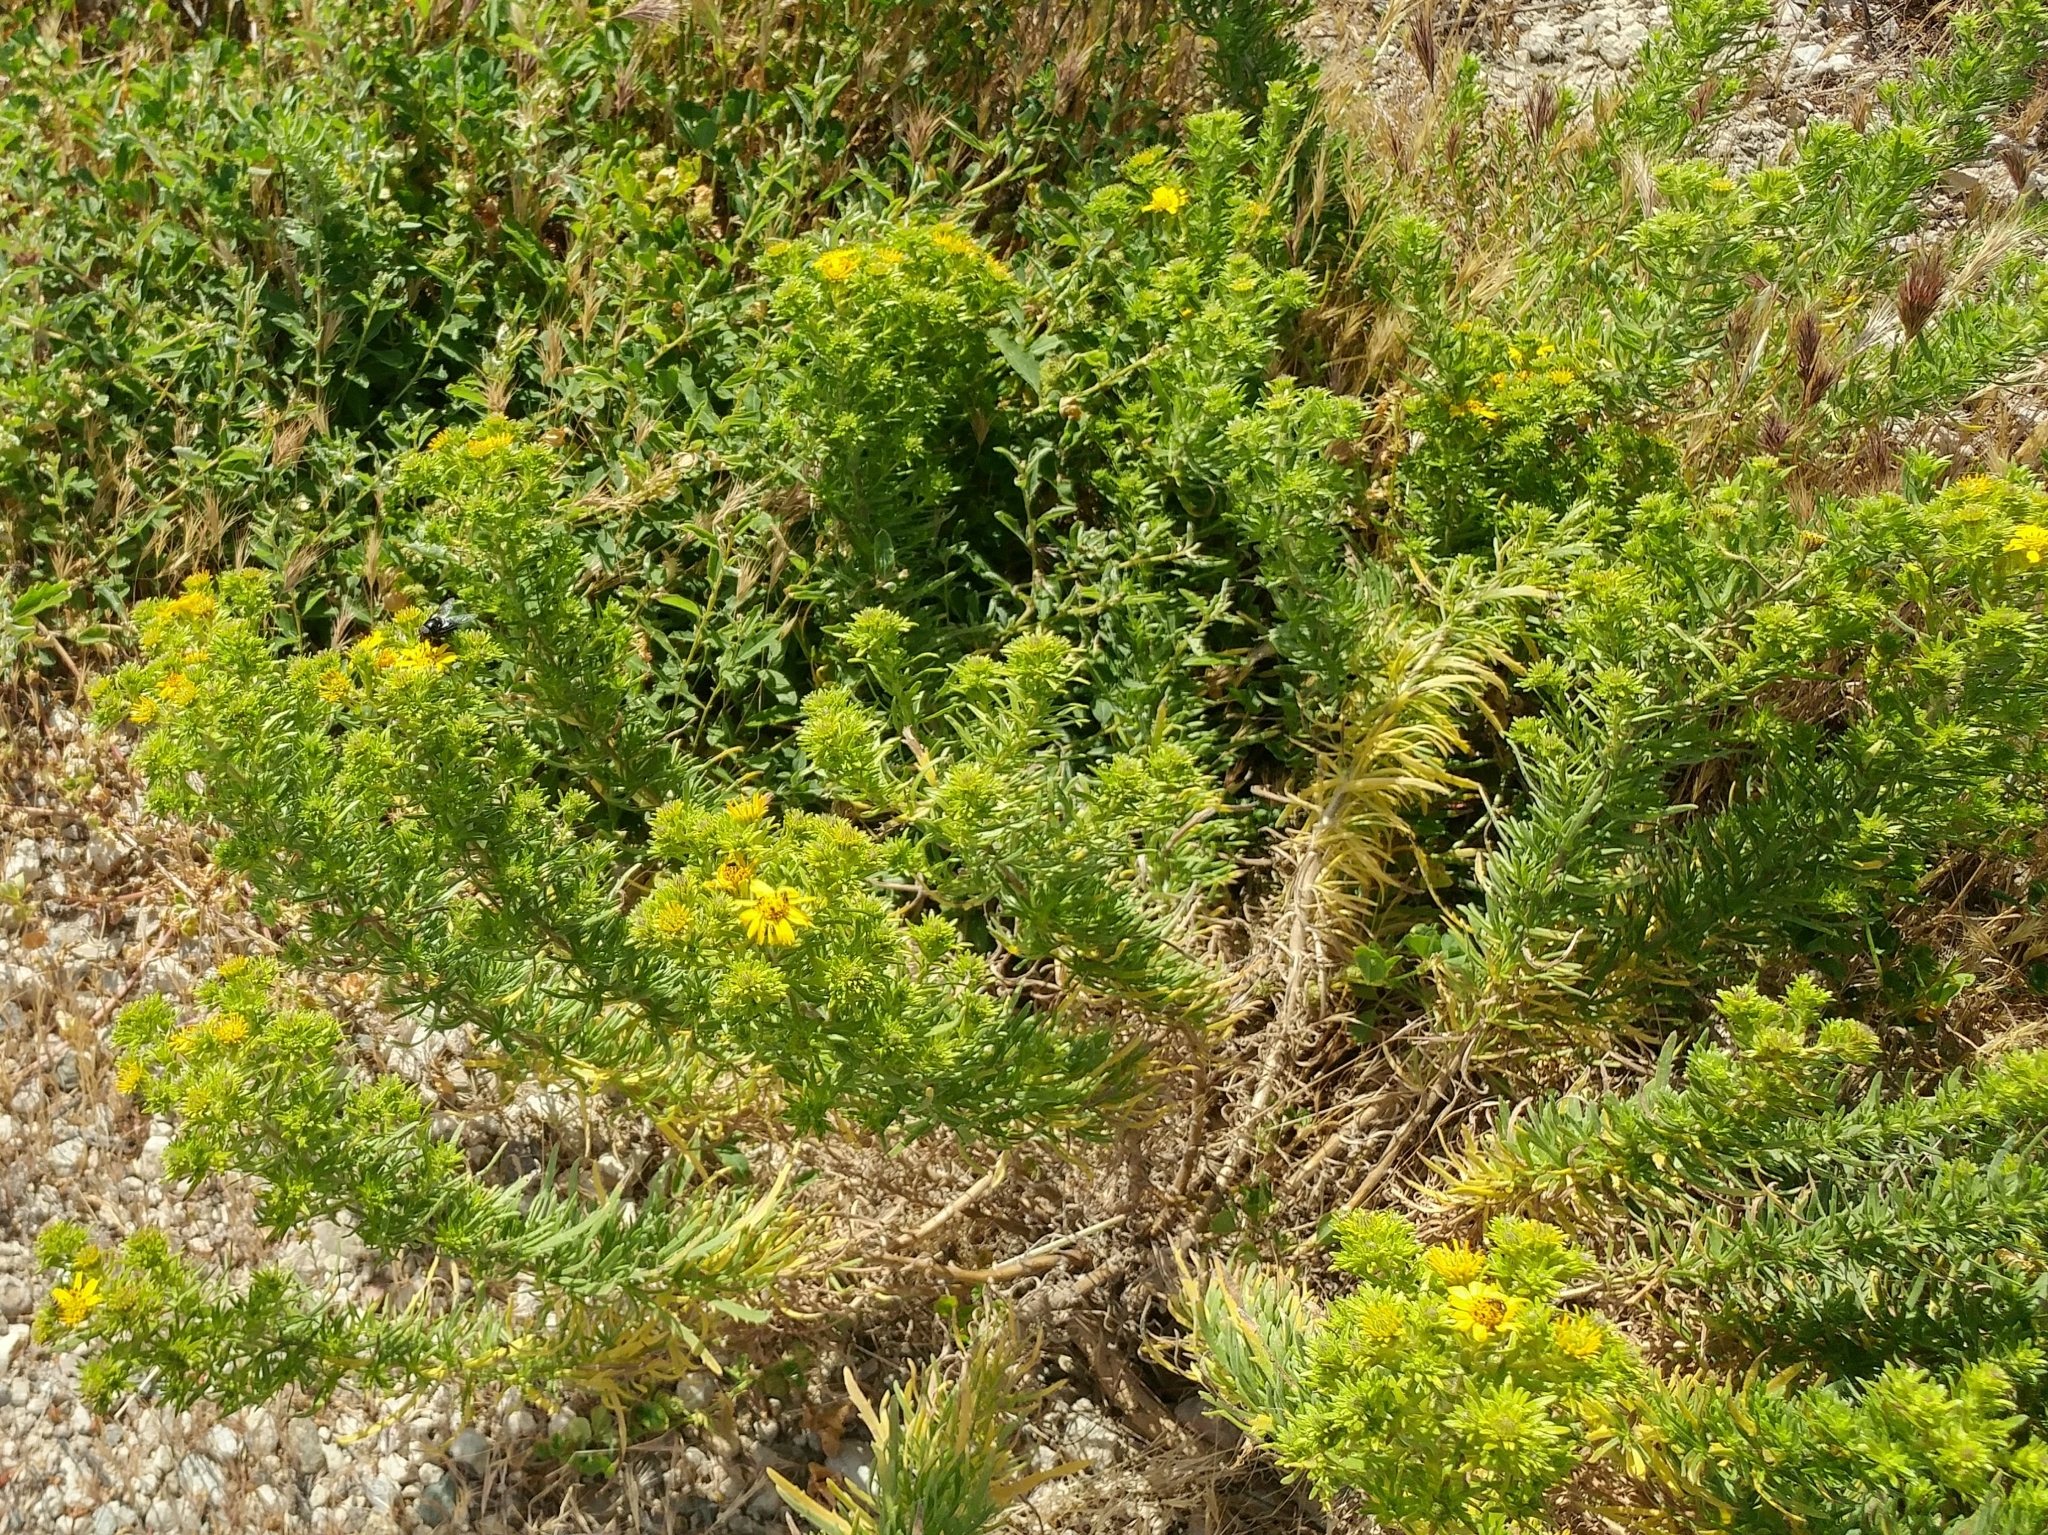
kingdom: Plantae
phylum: Tracheophyta
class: Magnoliopsida
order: Asterales
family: Asteraceae
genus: Deinandra
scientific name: Deinandra clementina
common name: Island tarplant
